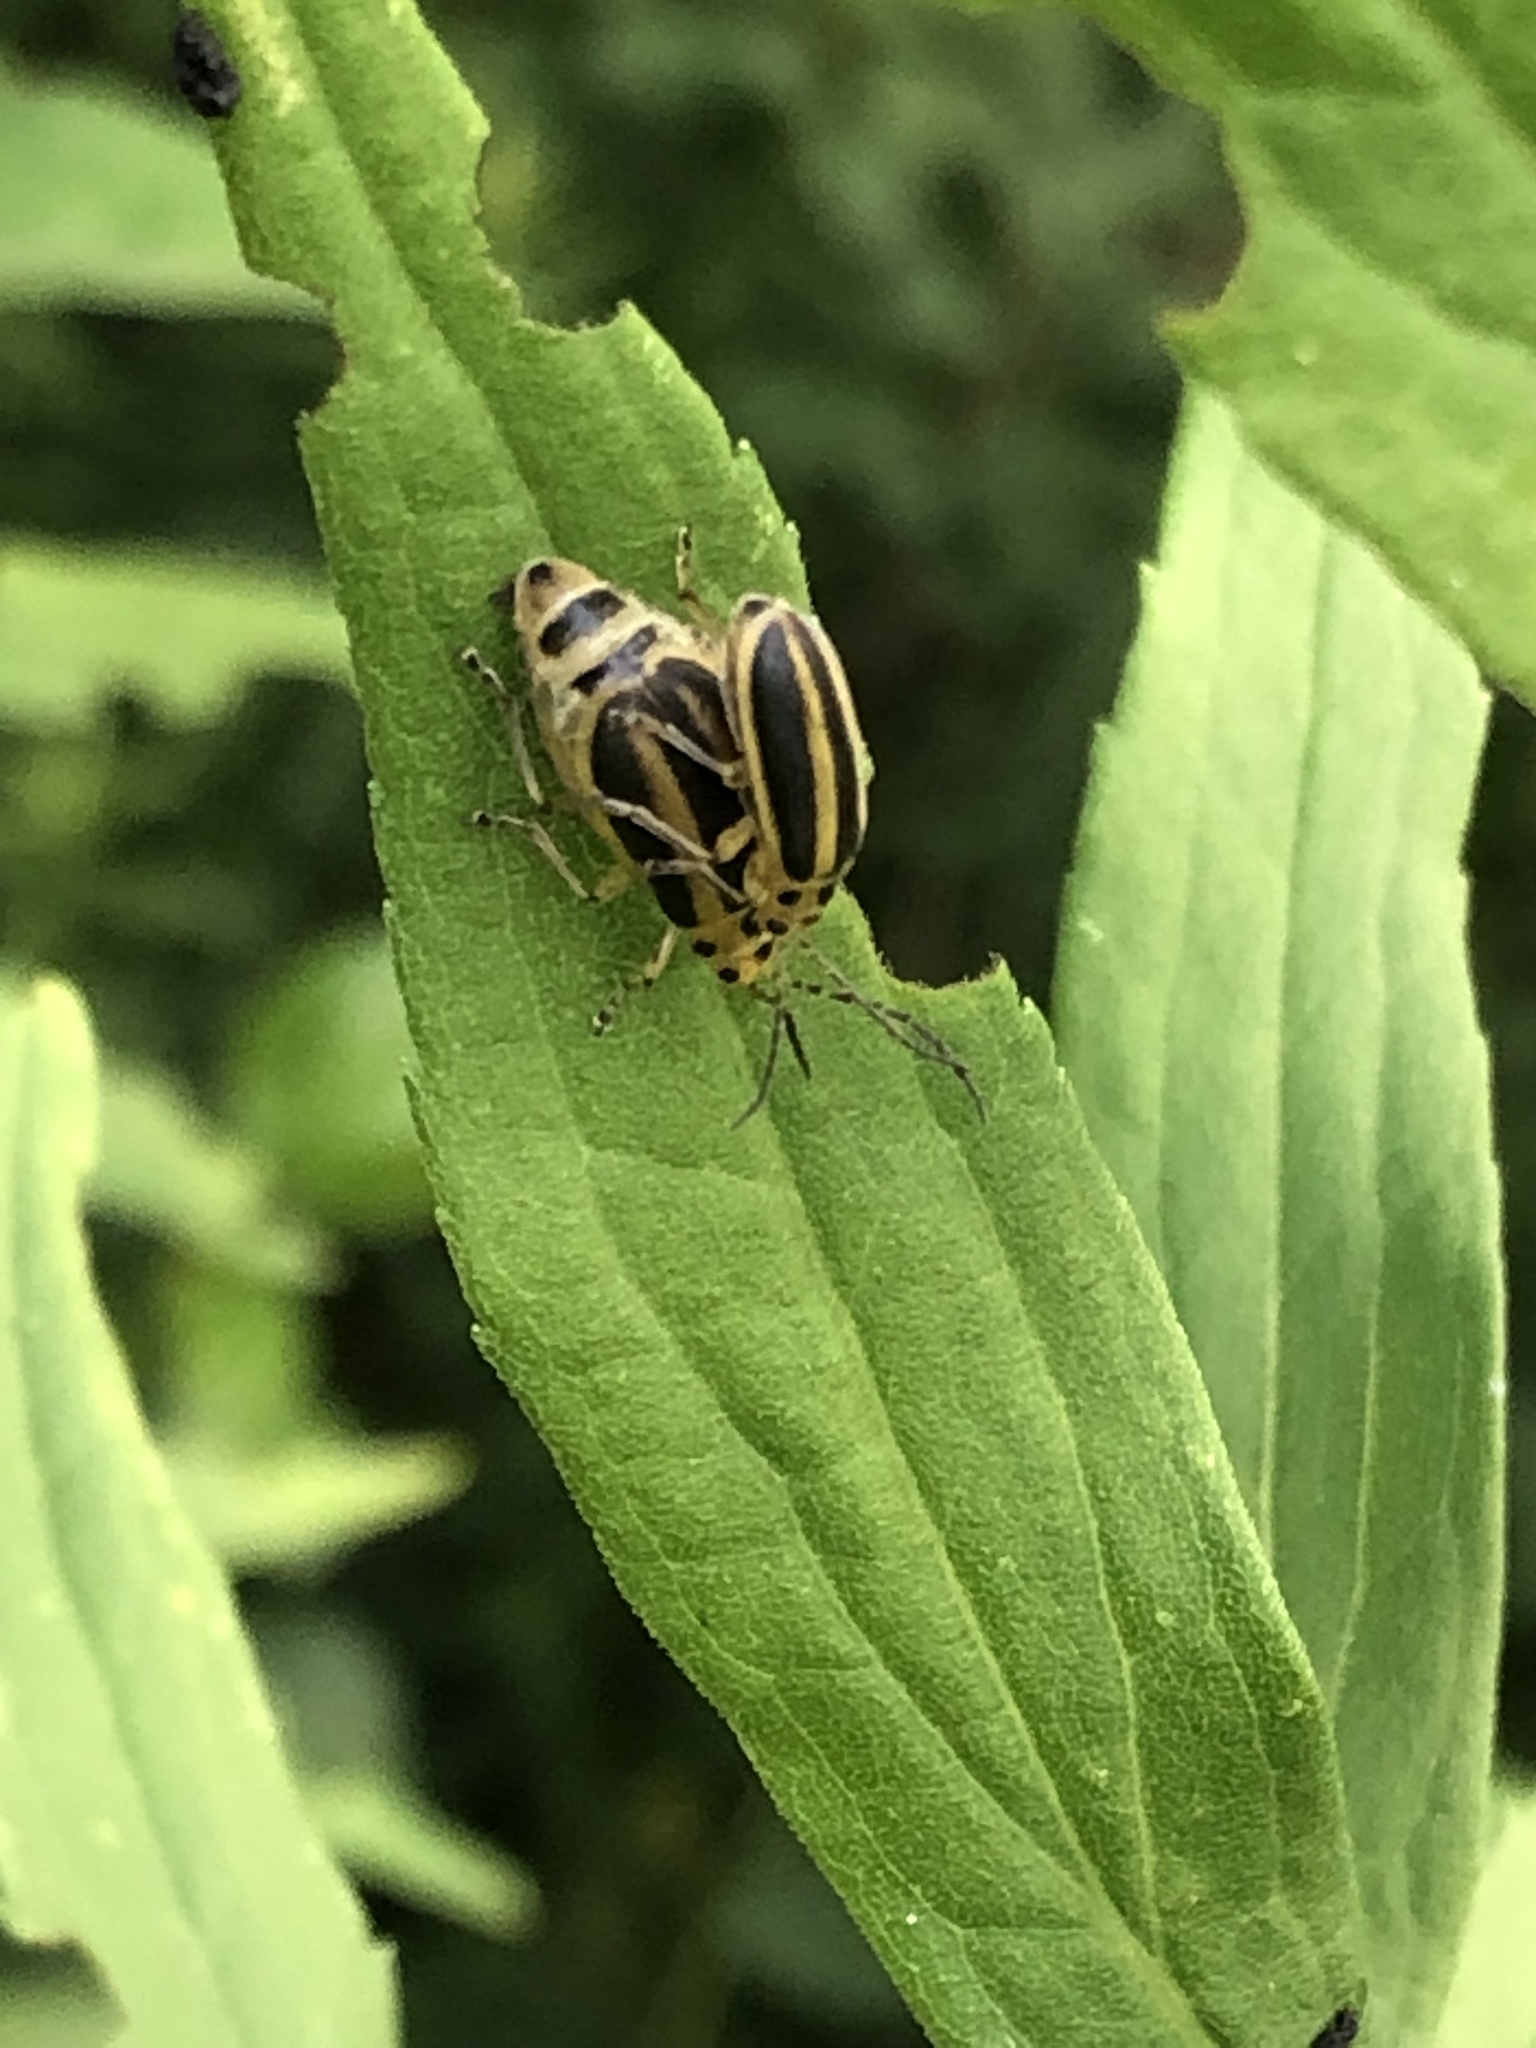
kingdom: Animalia
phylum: Arthropoda
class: Insecta
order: Coleoptera
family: Chrysomelidae
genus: Trirhabda
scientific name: Trirhabda canadensis
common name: Goldenrod leaf beetle
